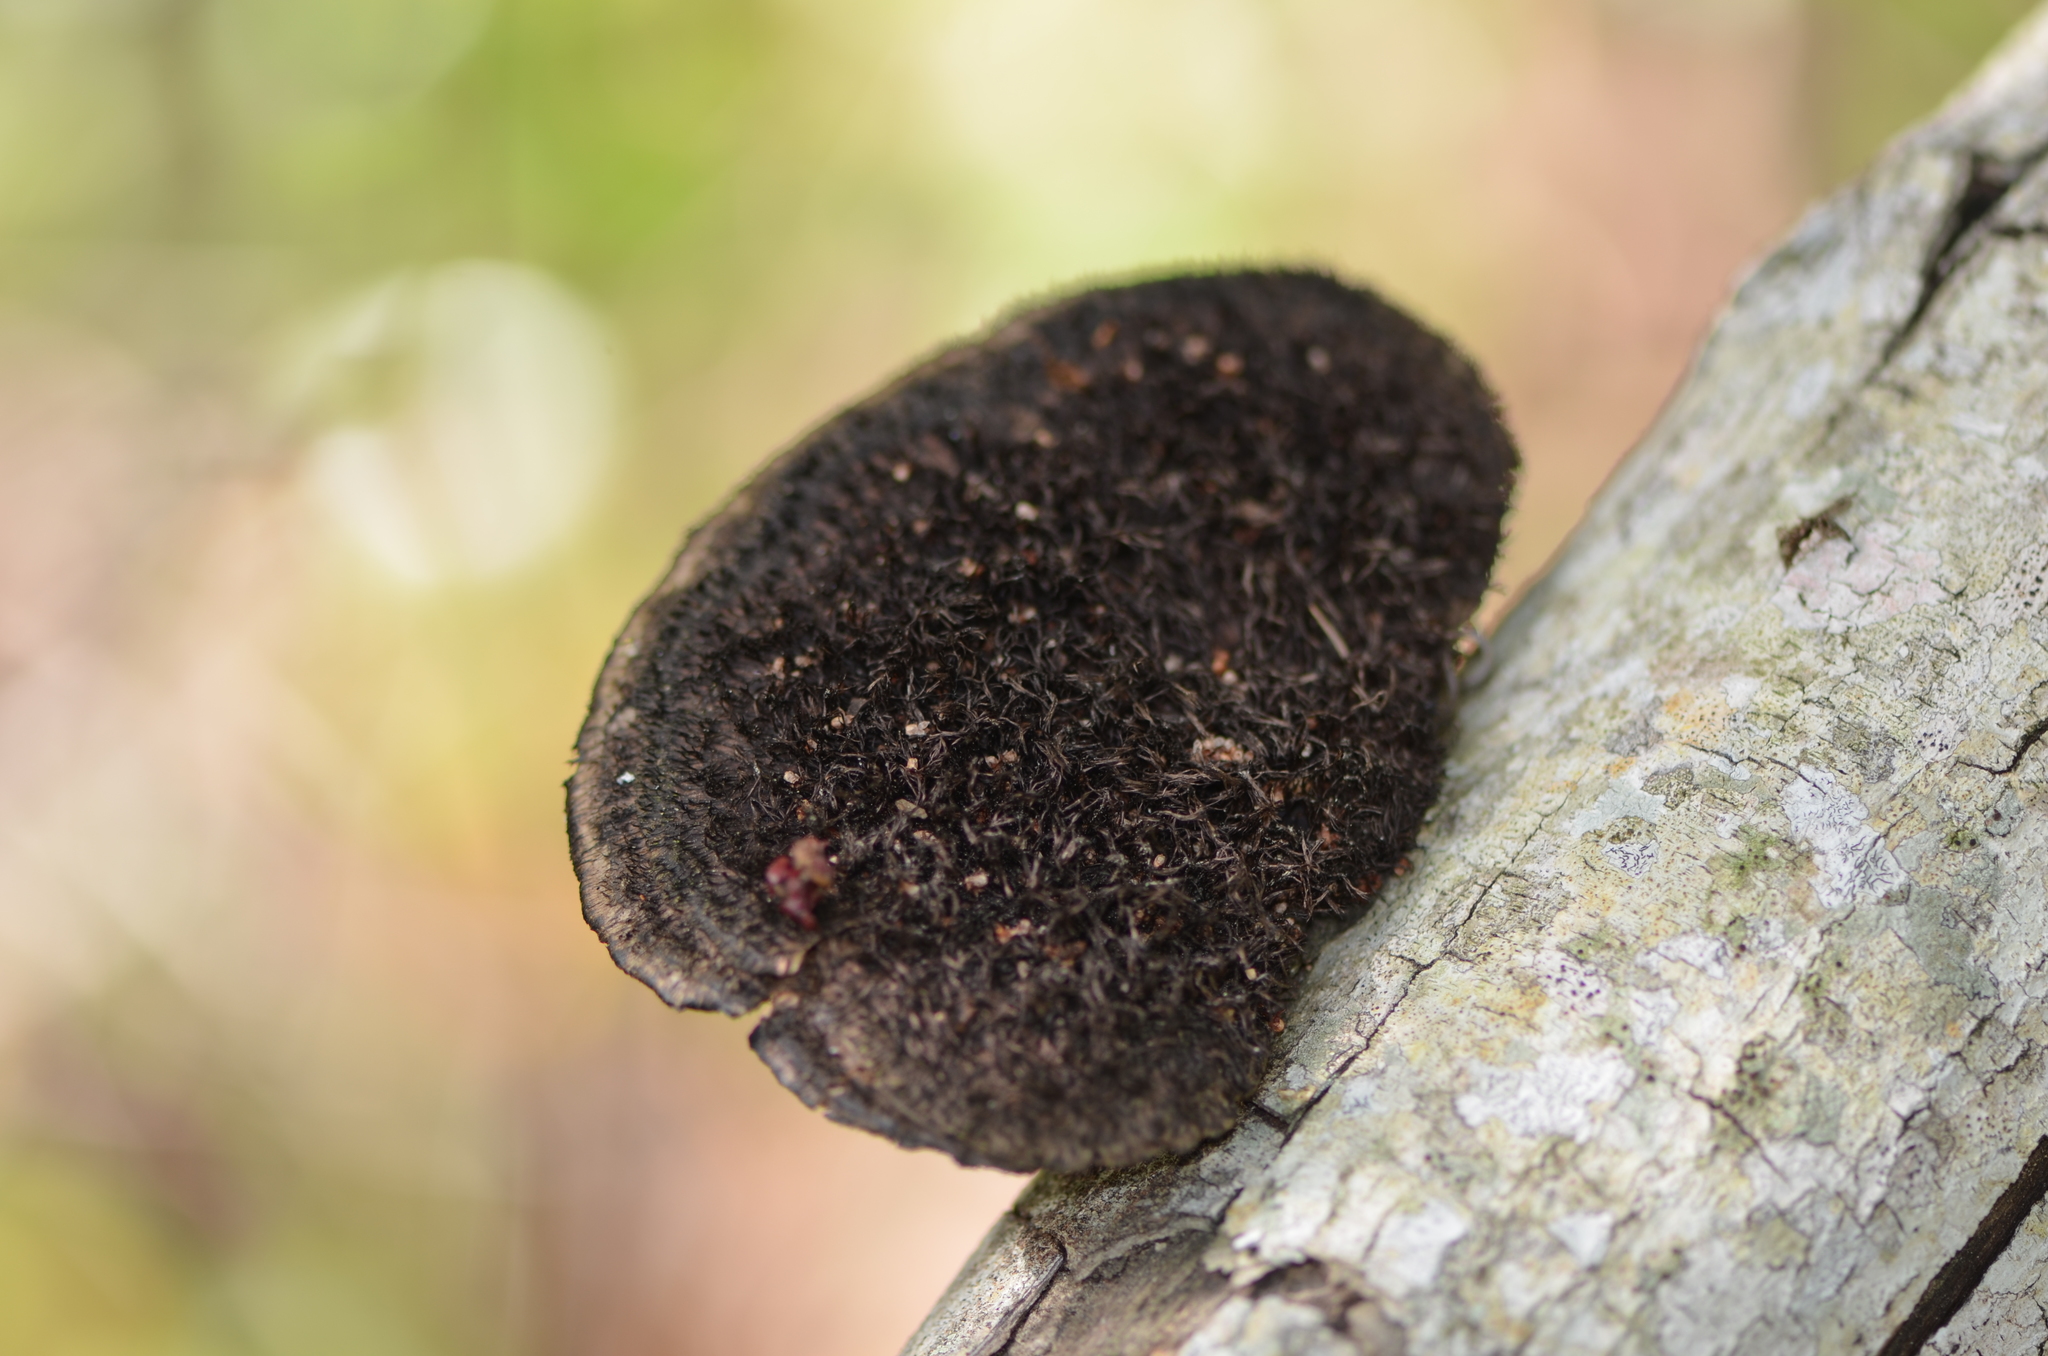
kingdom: Fungi
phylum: Basidiomycota
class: Agaricomycetes
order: Polyporales
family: Cerrenaceae
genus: Cerrena
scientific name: Cerrena hydnoides
